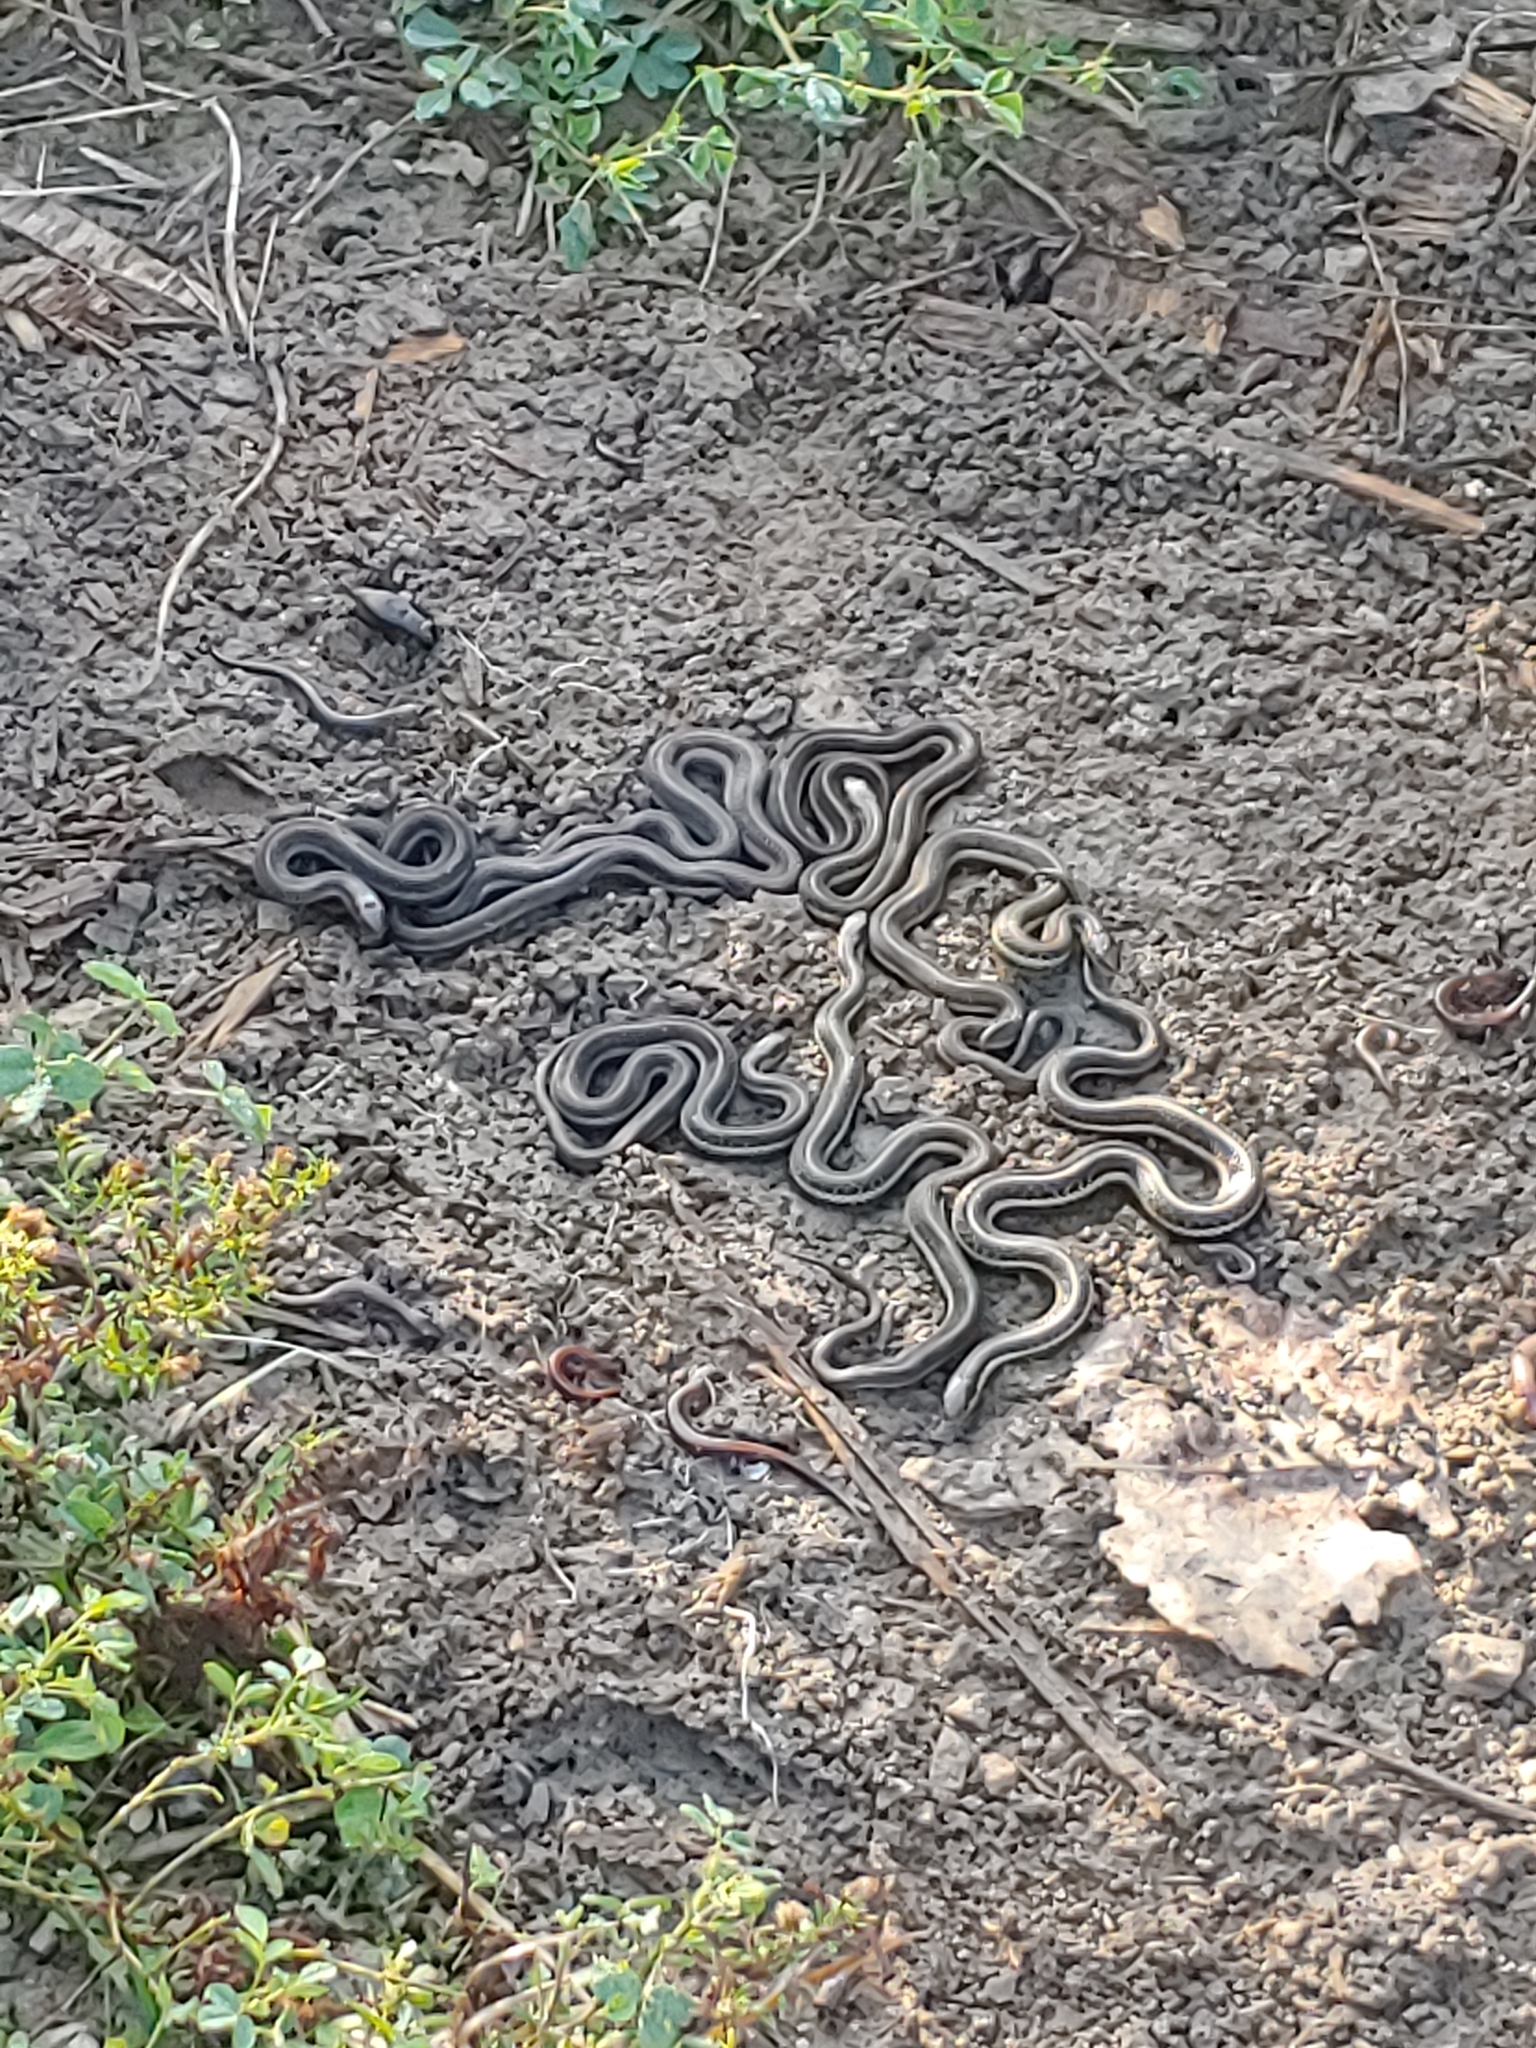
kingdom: Animalia
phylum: Chordata
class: Squamata
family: Colubridae
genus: Thamnophis
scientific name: Thamnophis sirtalis
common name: Common garter snake
